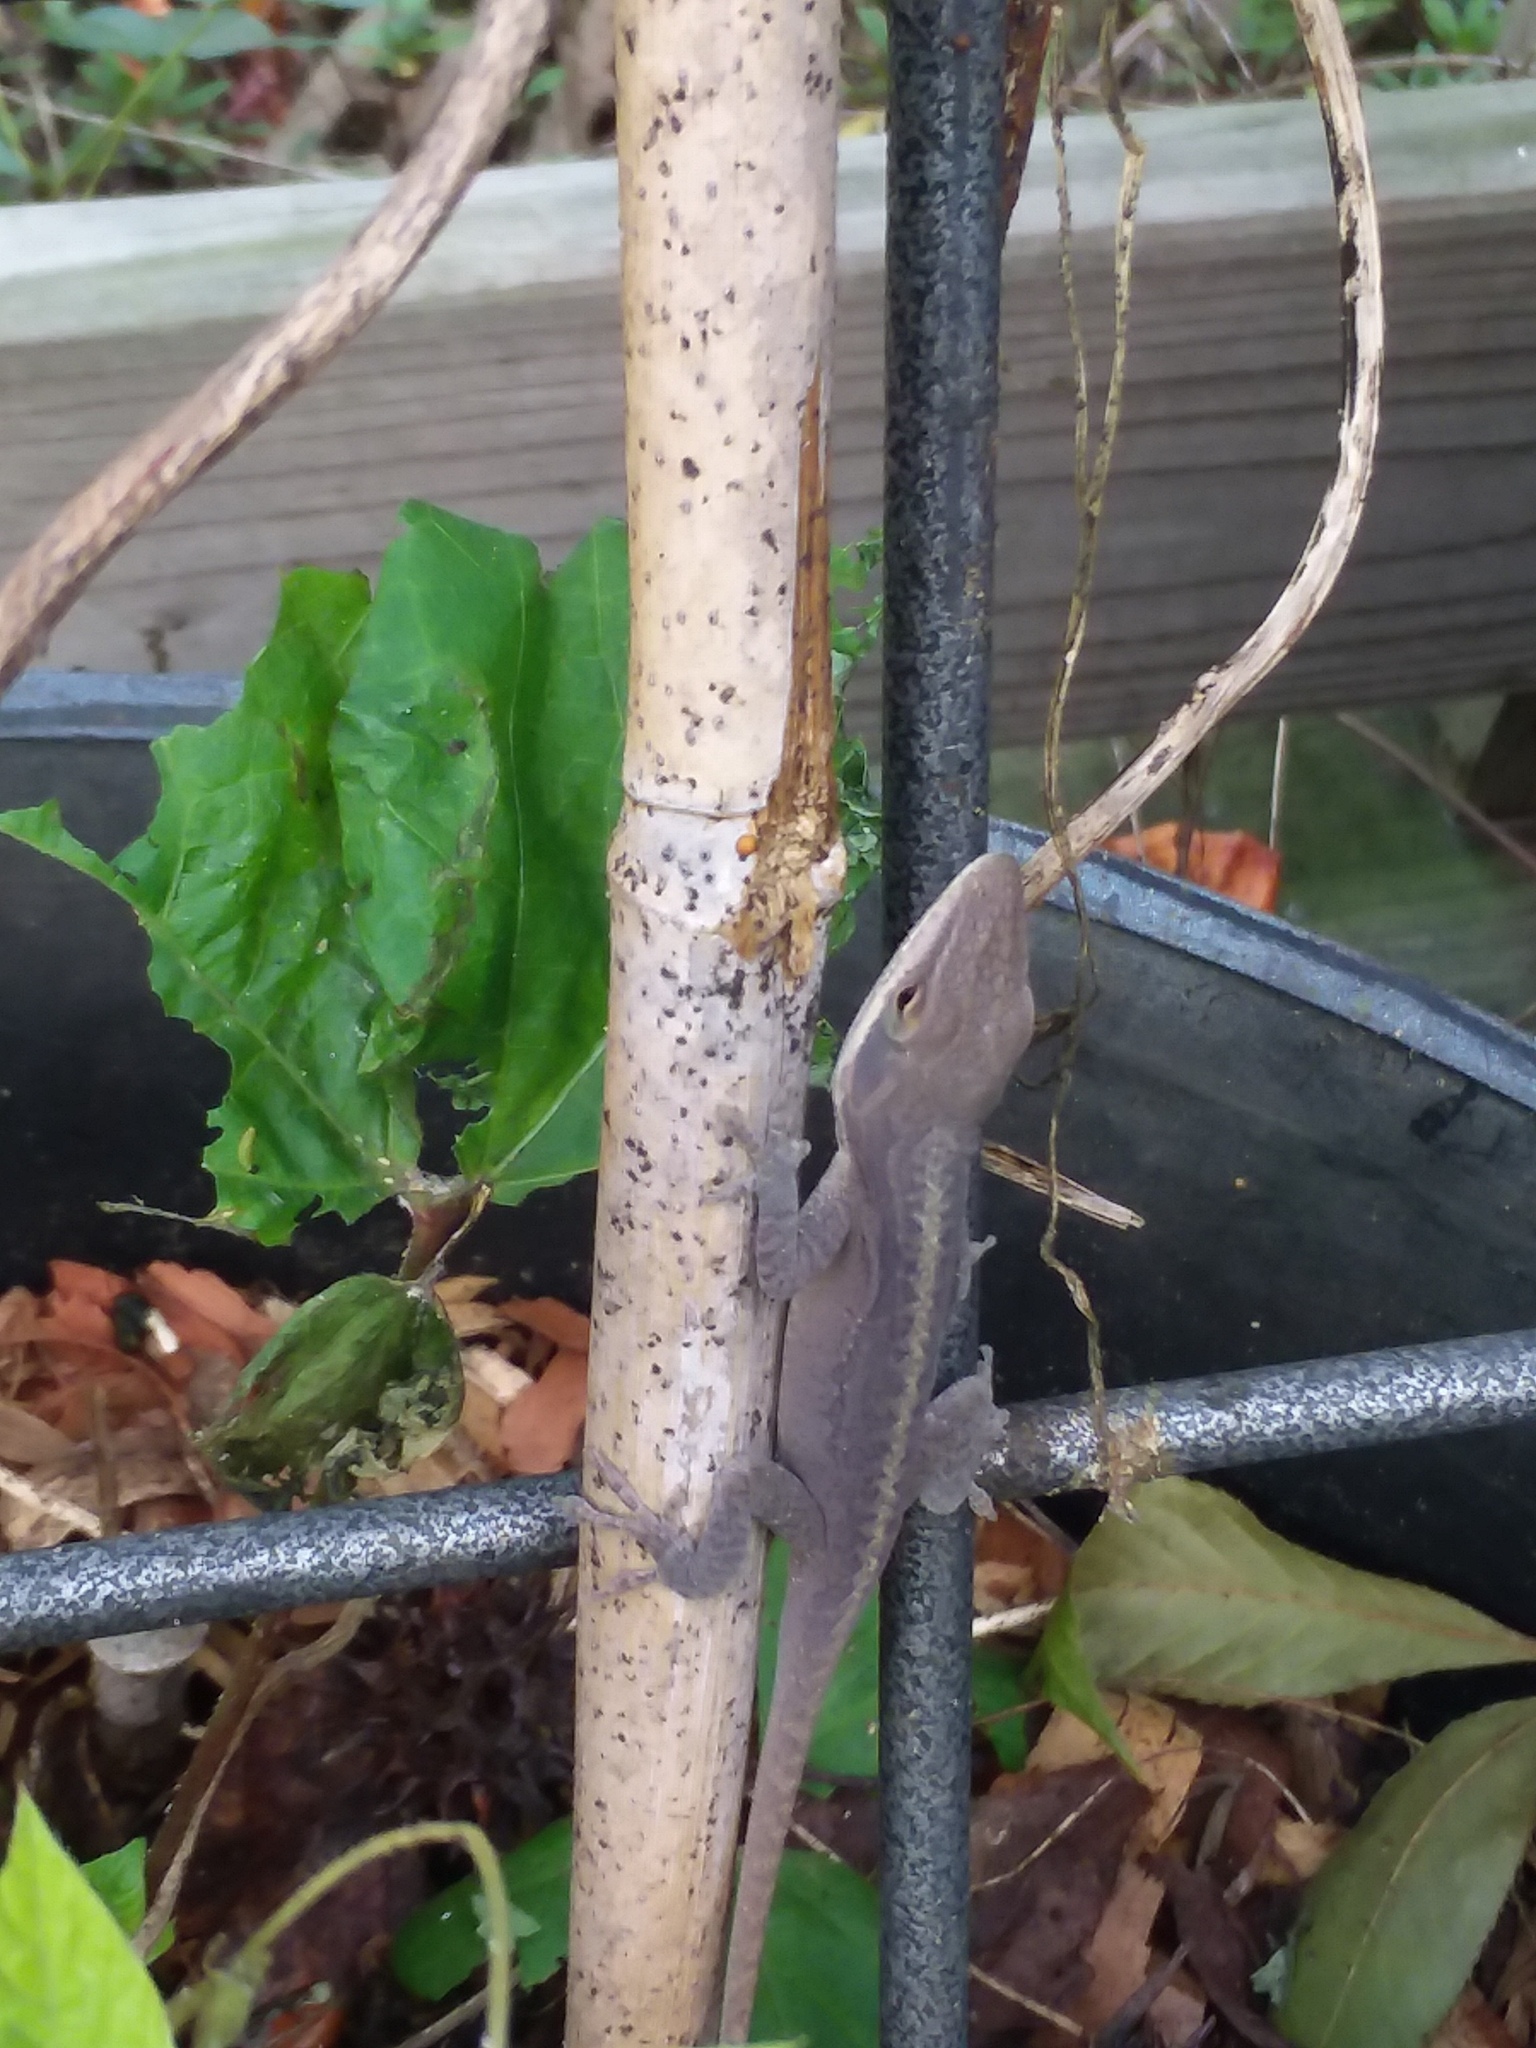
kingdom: Animalia
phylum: Chordata
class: Squamata
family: Dactyloidae
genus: Anolis
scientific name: Anolis carolinensis
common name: Green anole
